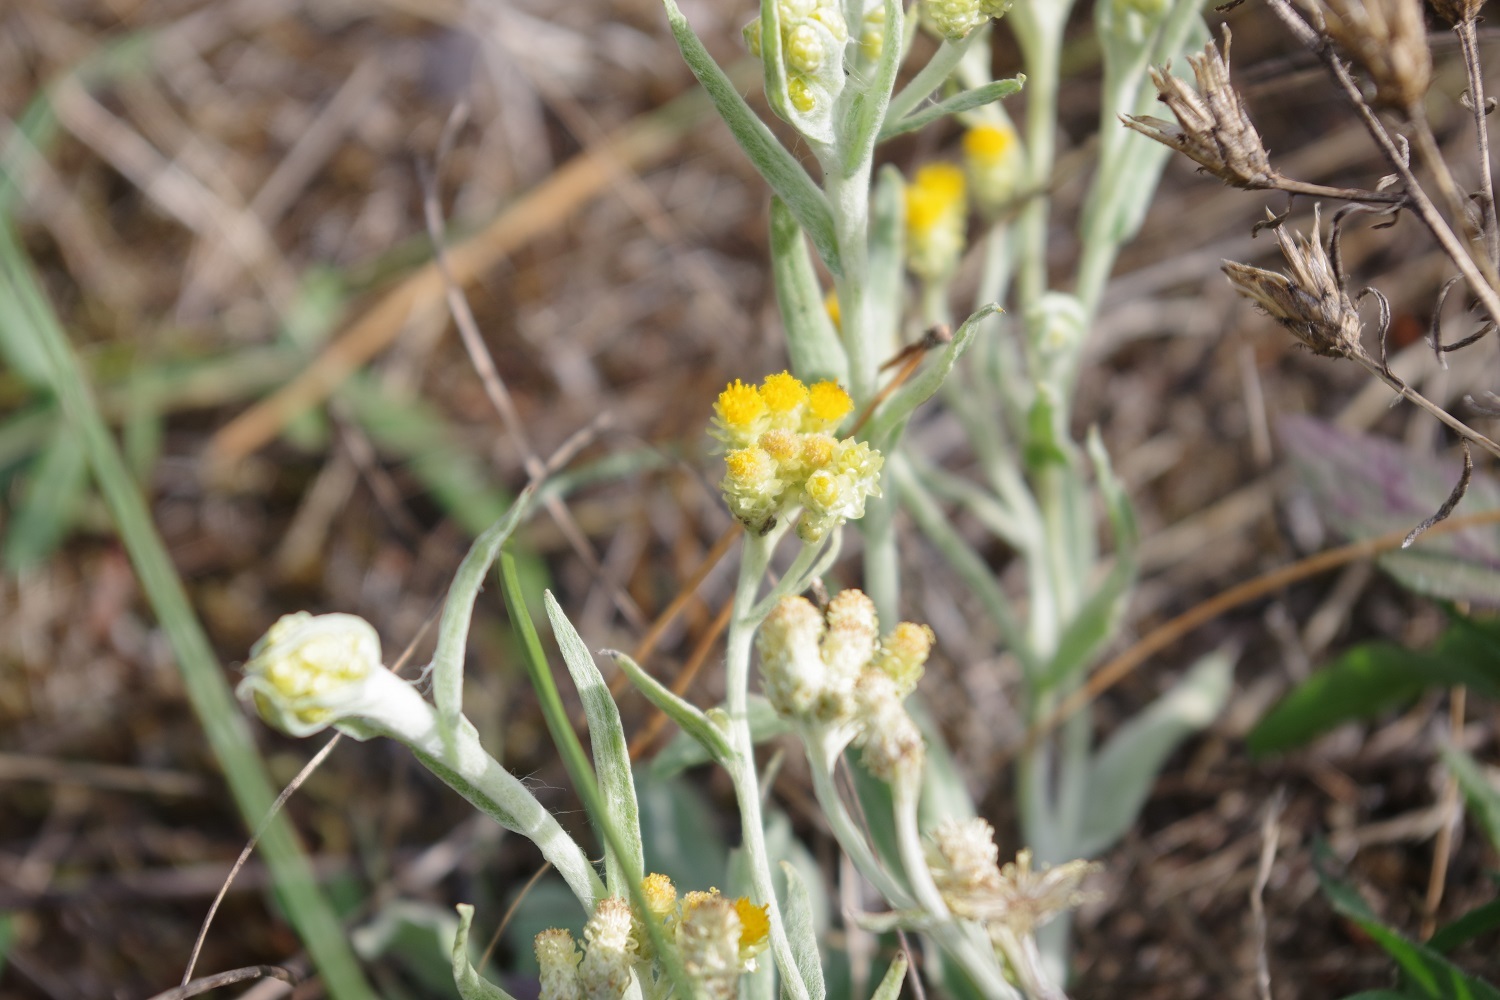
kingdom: Plantae
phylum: Tracheophyta
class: Magnoliopsida
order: Asterales
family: Asteraceae
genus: Helichrysum
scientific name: Helichrysum arenarium
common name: Strawflower
